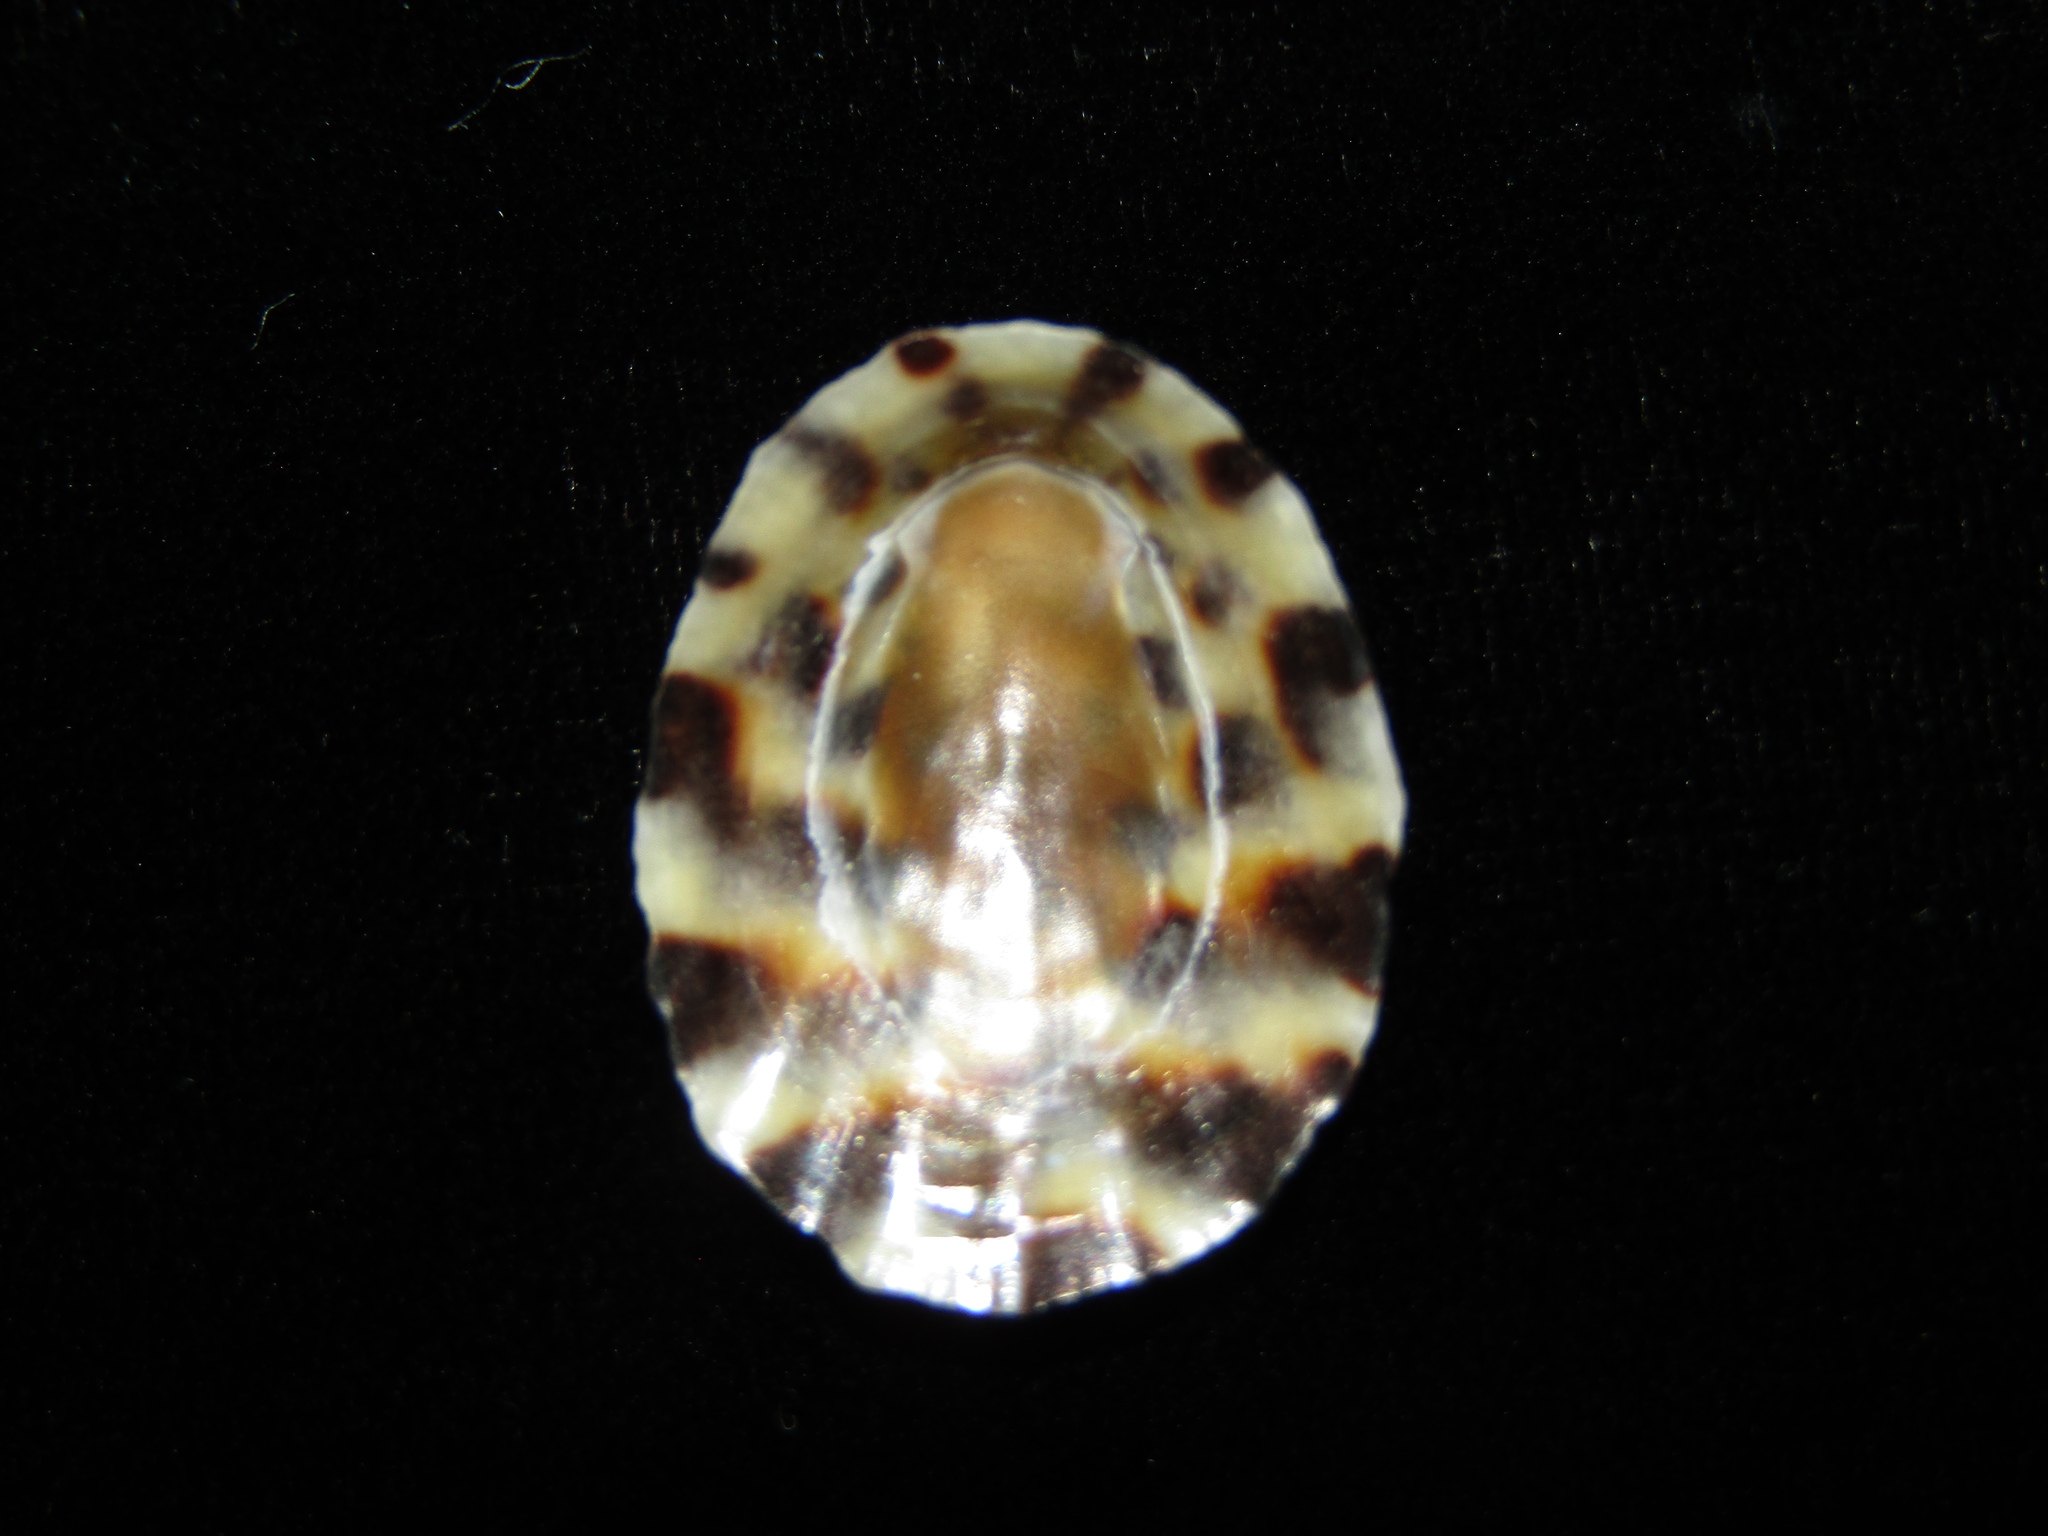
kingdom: Animalia
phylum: Mollusca
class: Gastropoda
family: Nacellidae
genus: Cellana
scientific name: Cellana radians
